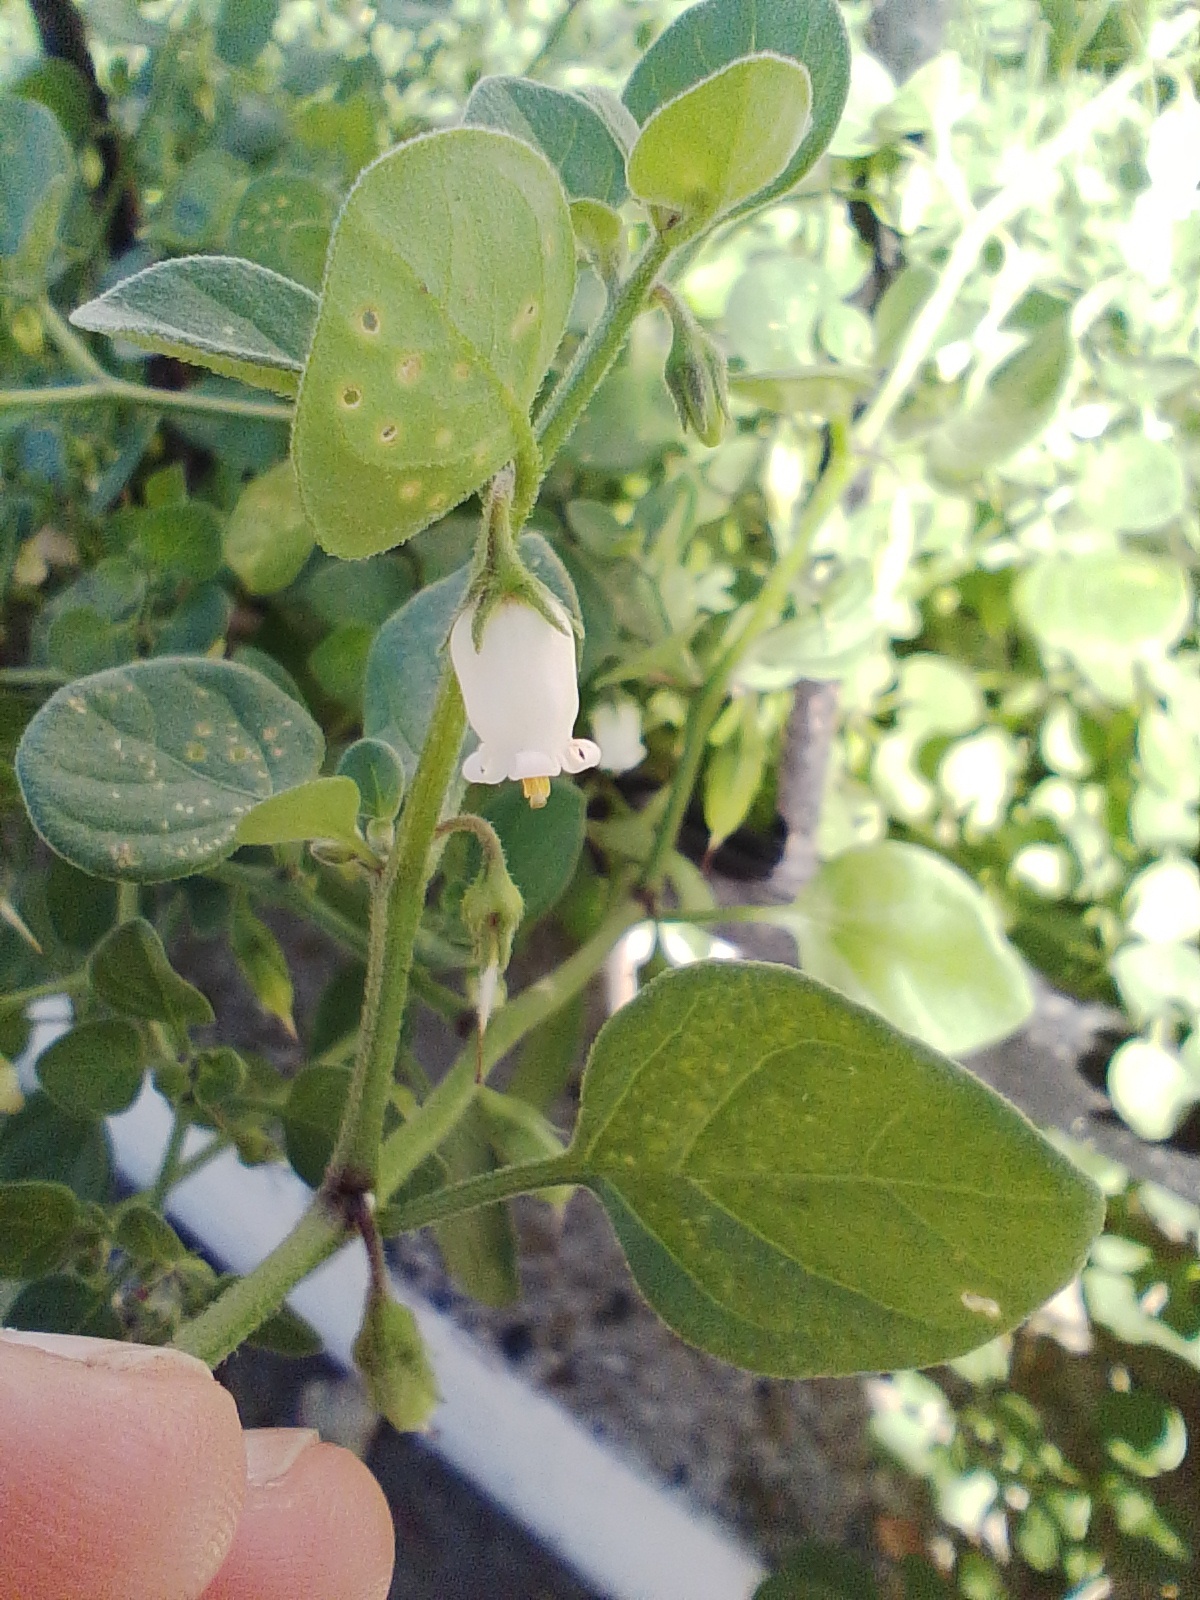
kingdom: Plantae
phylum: Tracheophyta
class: Magnoliopsida
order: Solanales
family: Solanaceae
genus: Salpichroa
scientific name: Salpichroa origanifolia
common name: Lily-of-the-valley-vine
